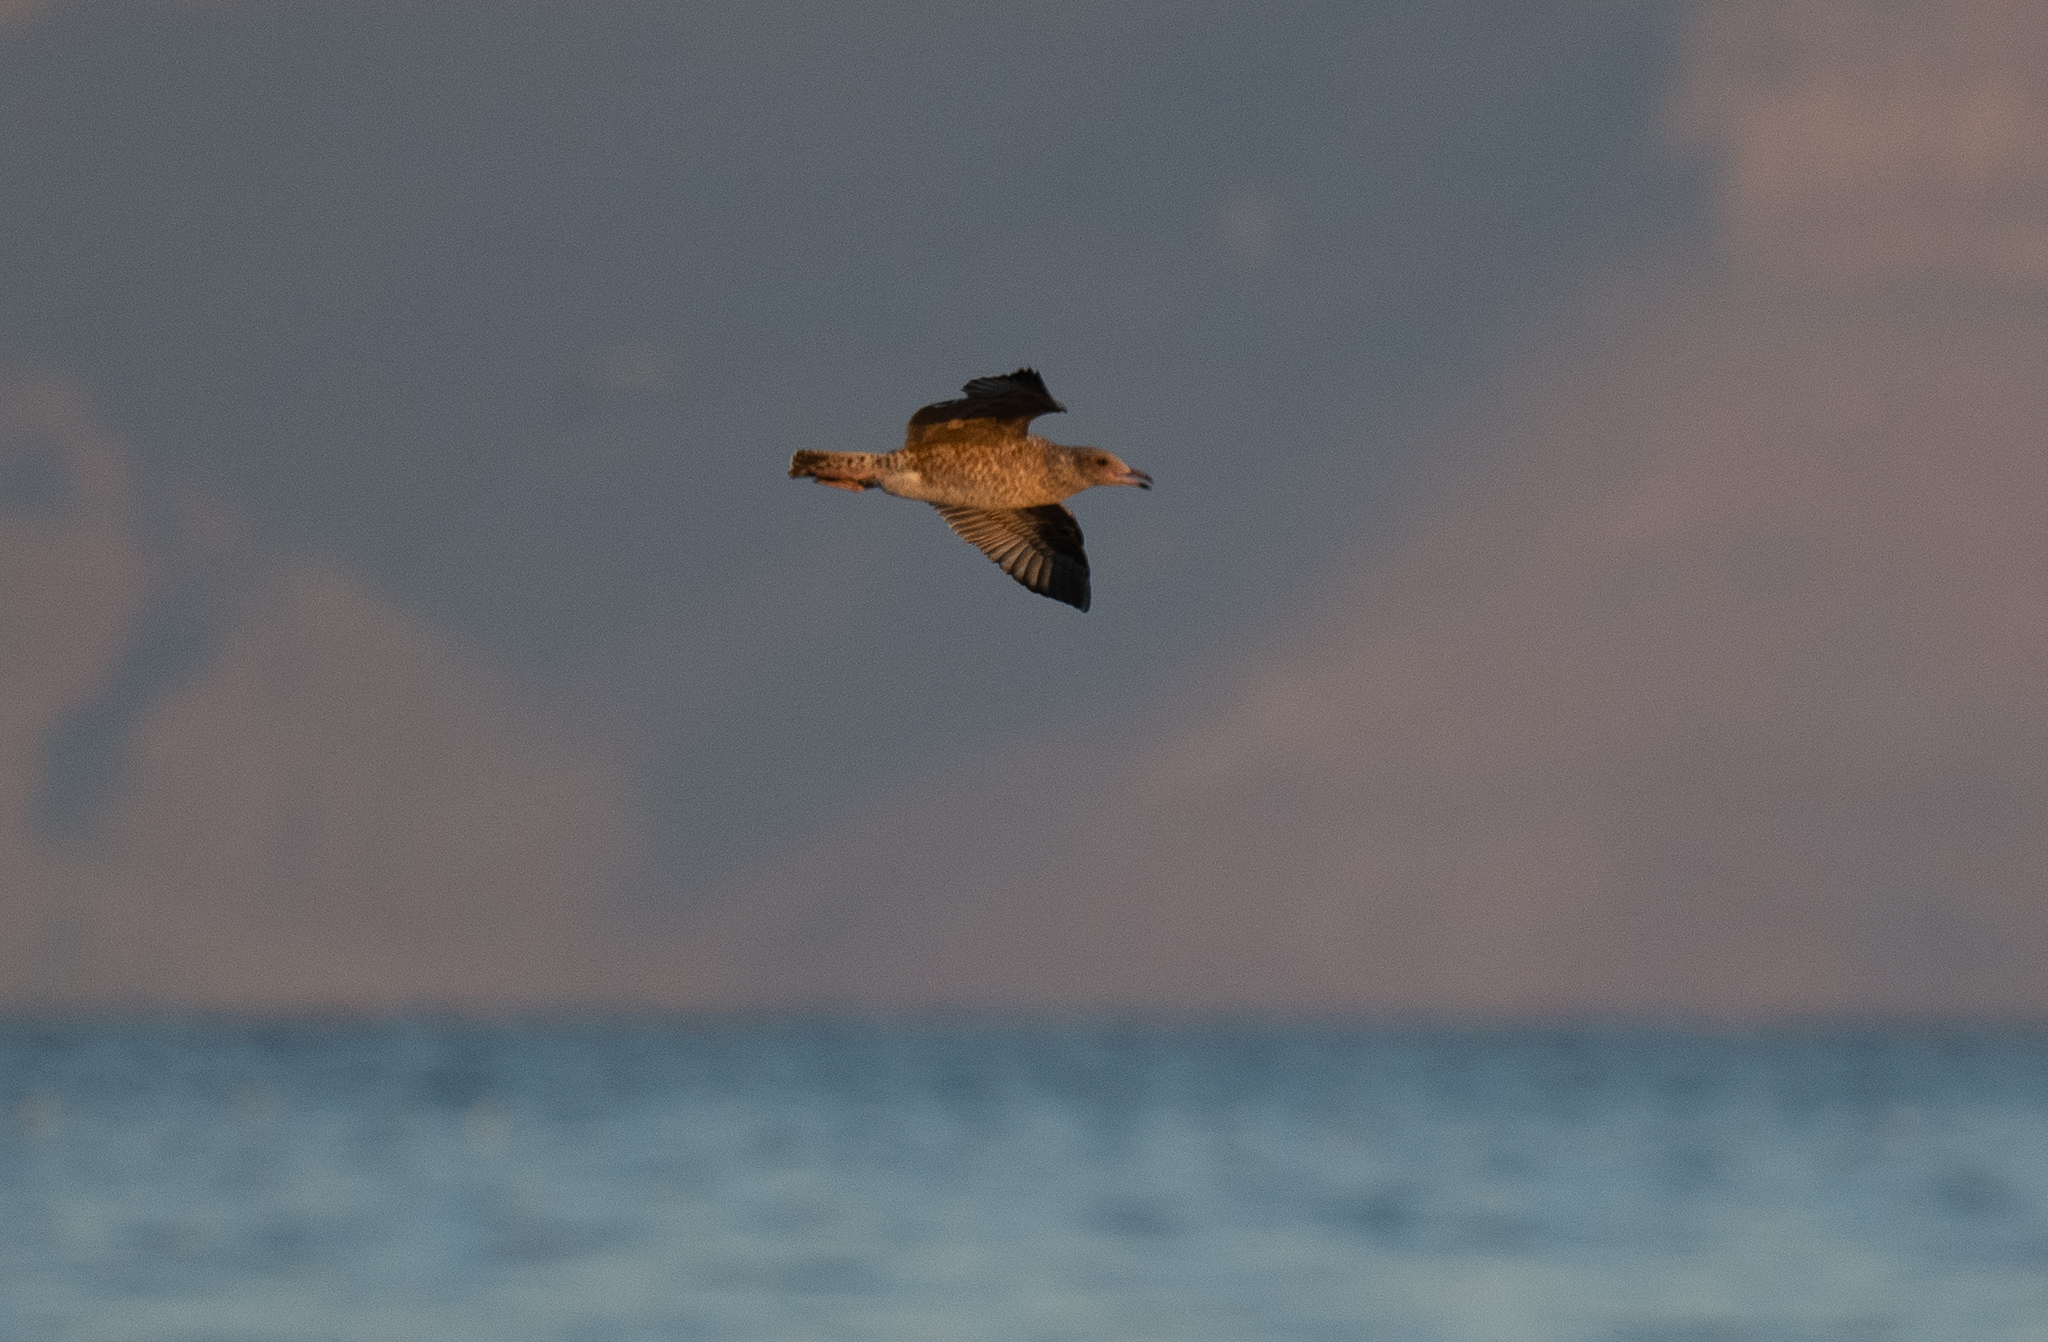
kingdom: Animalia
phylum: Chordata
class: Aves
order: Charadriiformes
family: Laridae
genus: Larus
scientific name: Larus californicus
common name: California gull
